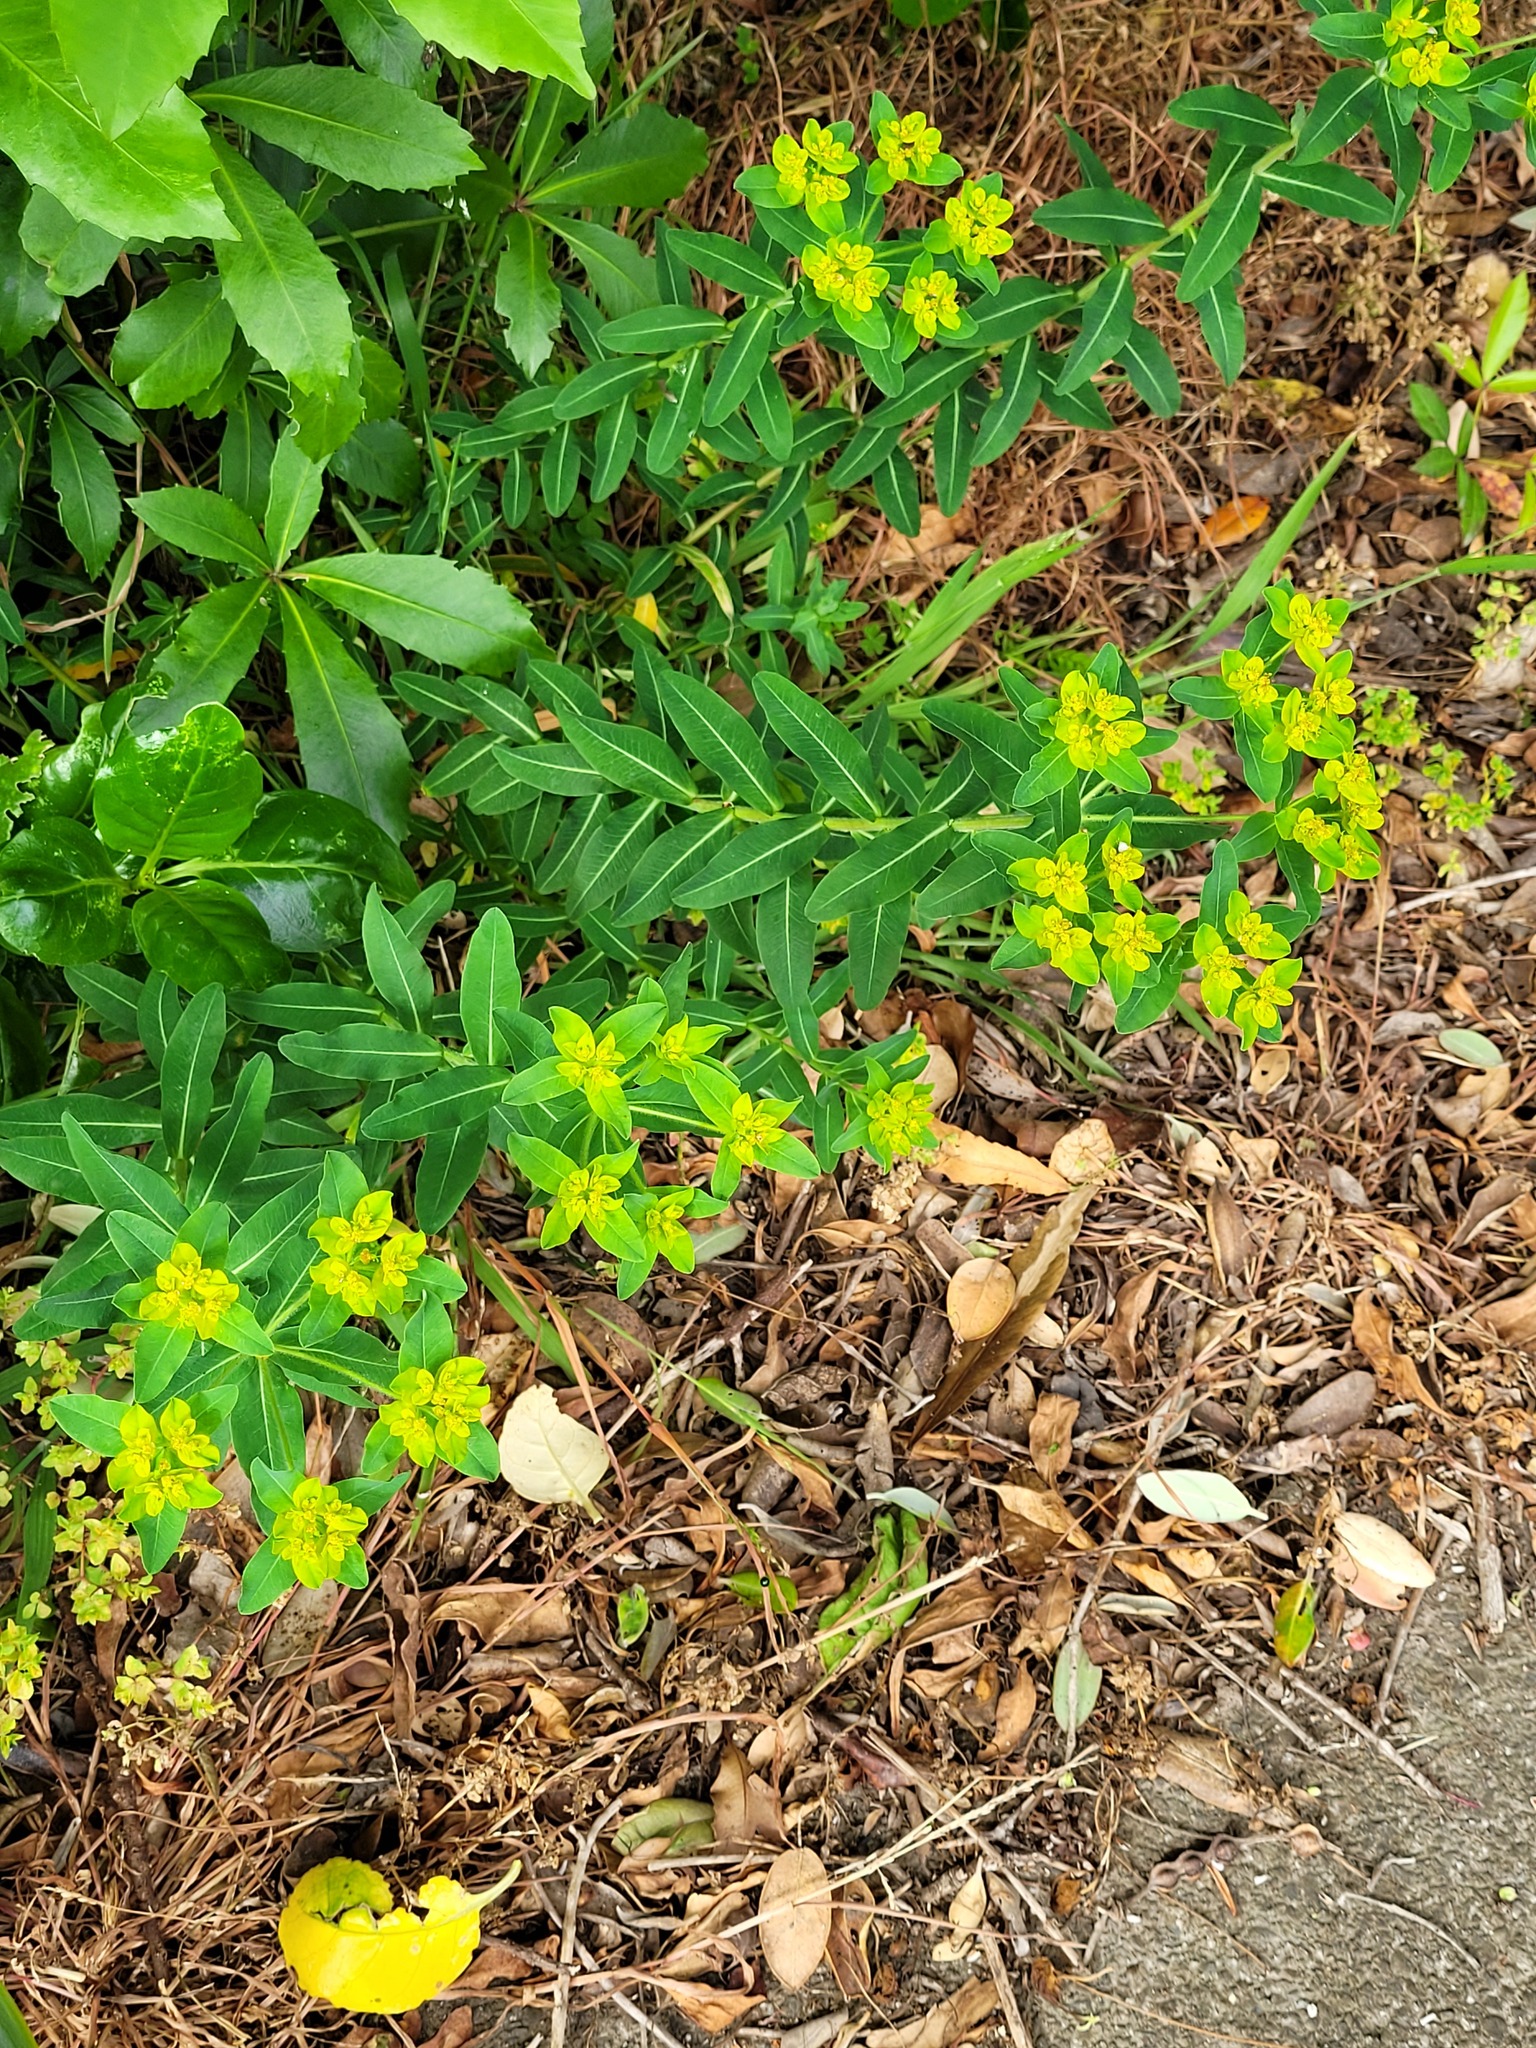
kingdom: Plantae
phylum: Tracheophyta
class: Magnoliopsida
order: Malpighiales
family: Euphorbiaceae
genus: Euphorbia
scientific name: Euphorbia oblongata
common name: Balkan spurge
